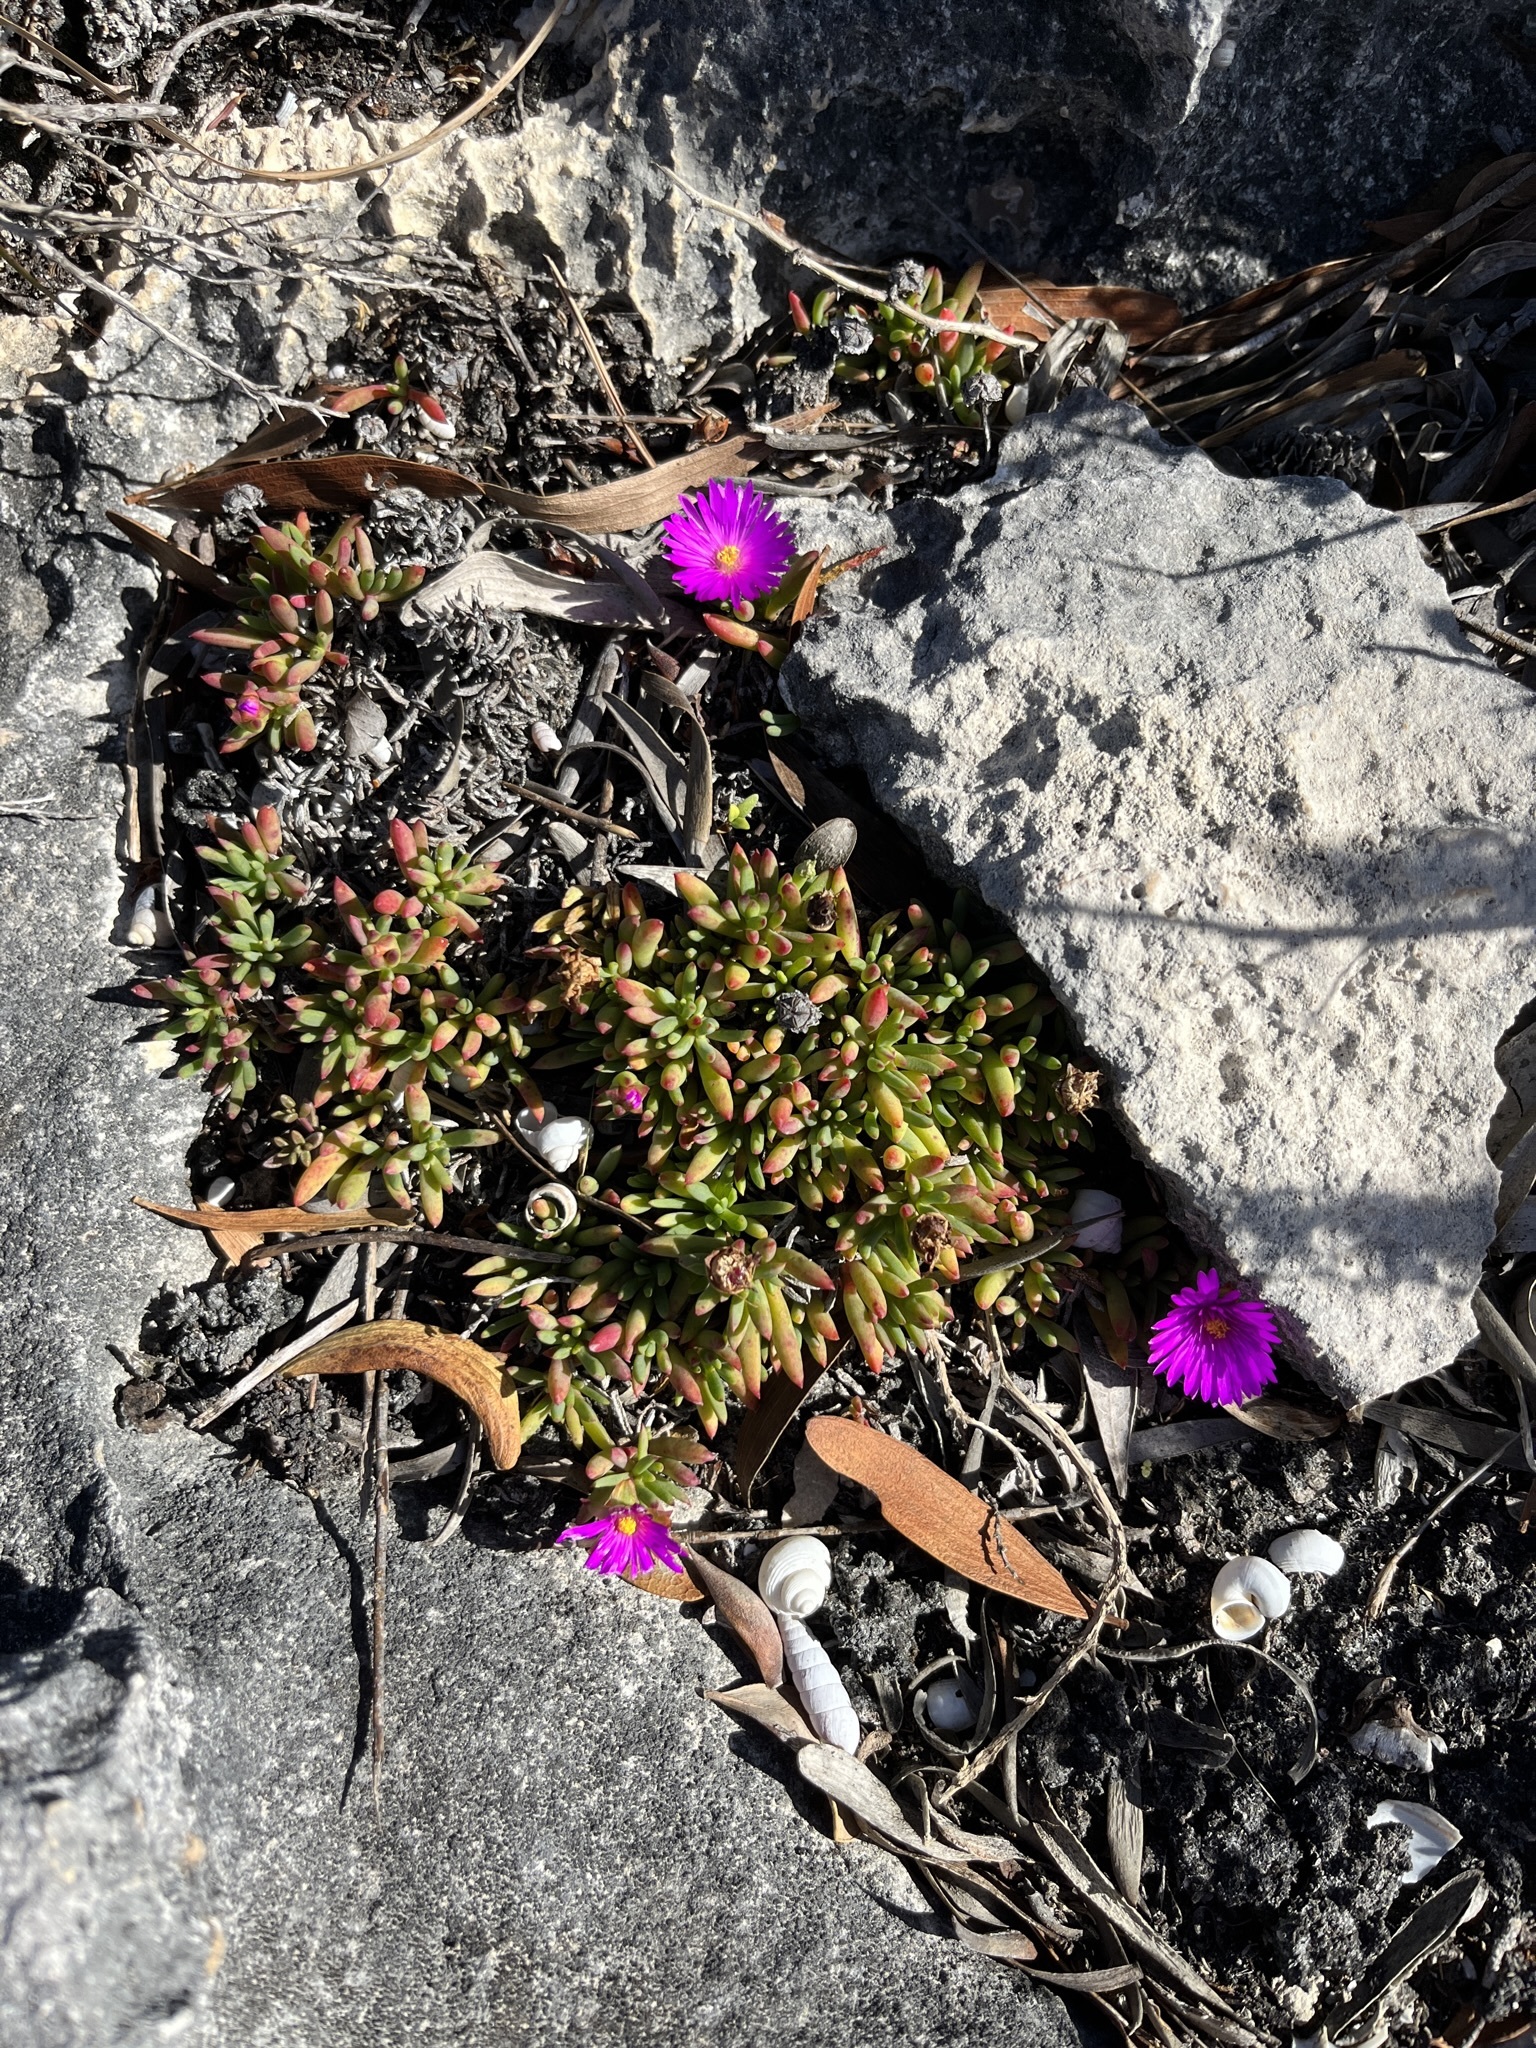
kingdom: Plantae
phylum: Tracheophyta
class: Magnoliopsida
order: Caryophyllales
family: Aizoaceae
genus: Lampranthus
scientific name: Lampranthus ceriseus
